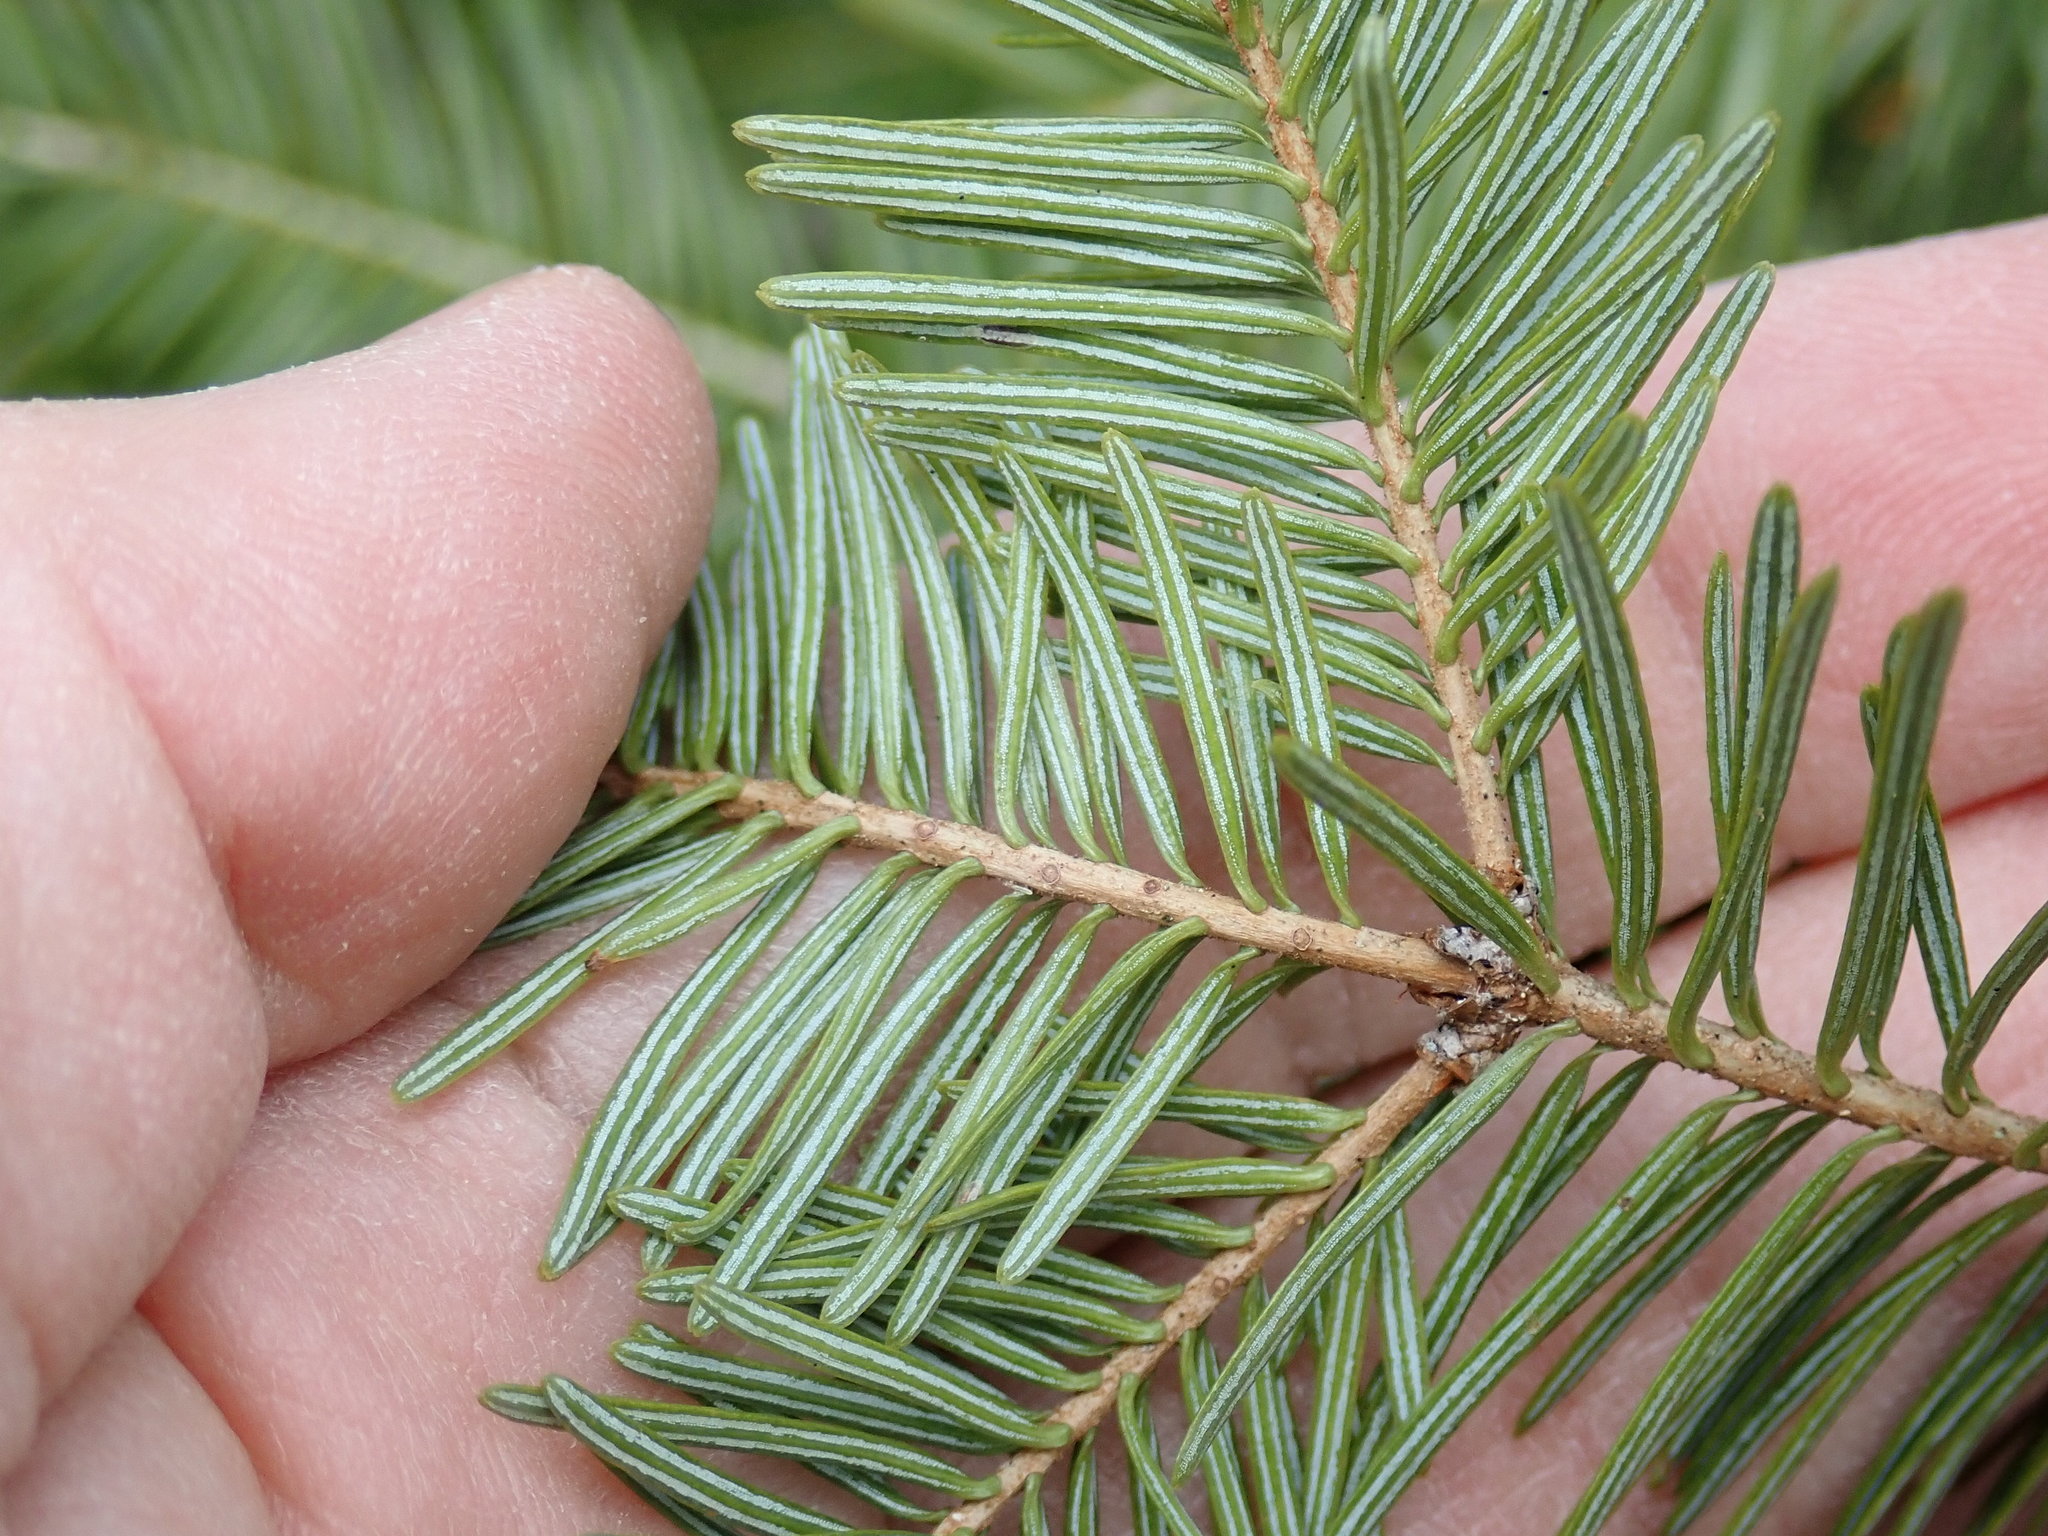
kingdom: Plantae
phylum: Tracheophyta
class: Pinopsida
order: Pinales
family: Pinaceae
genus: Abies
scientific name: Abies balsamea
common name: Balsam fir
